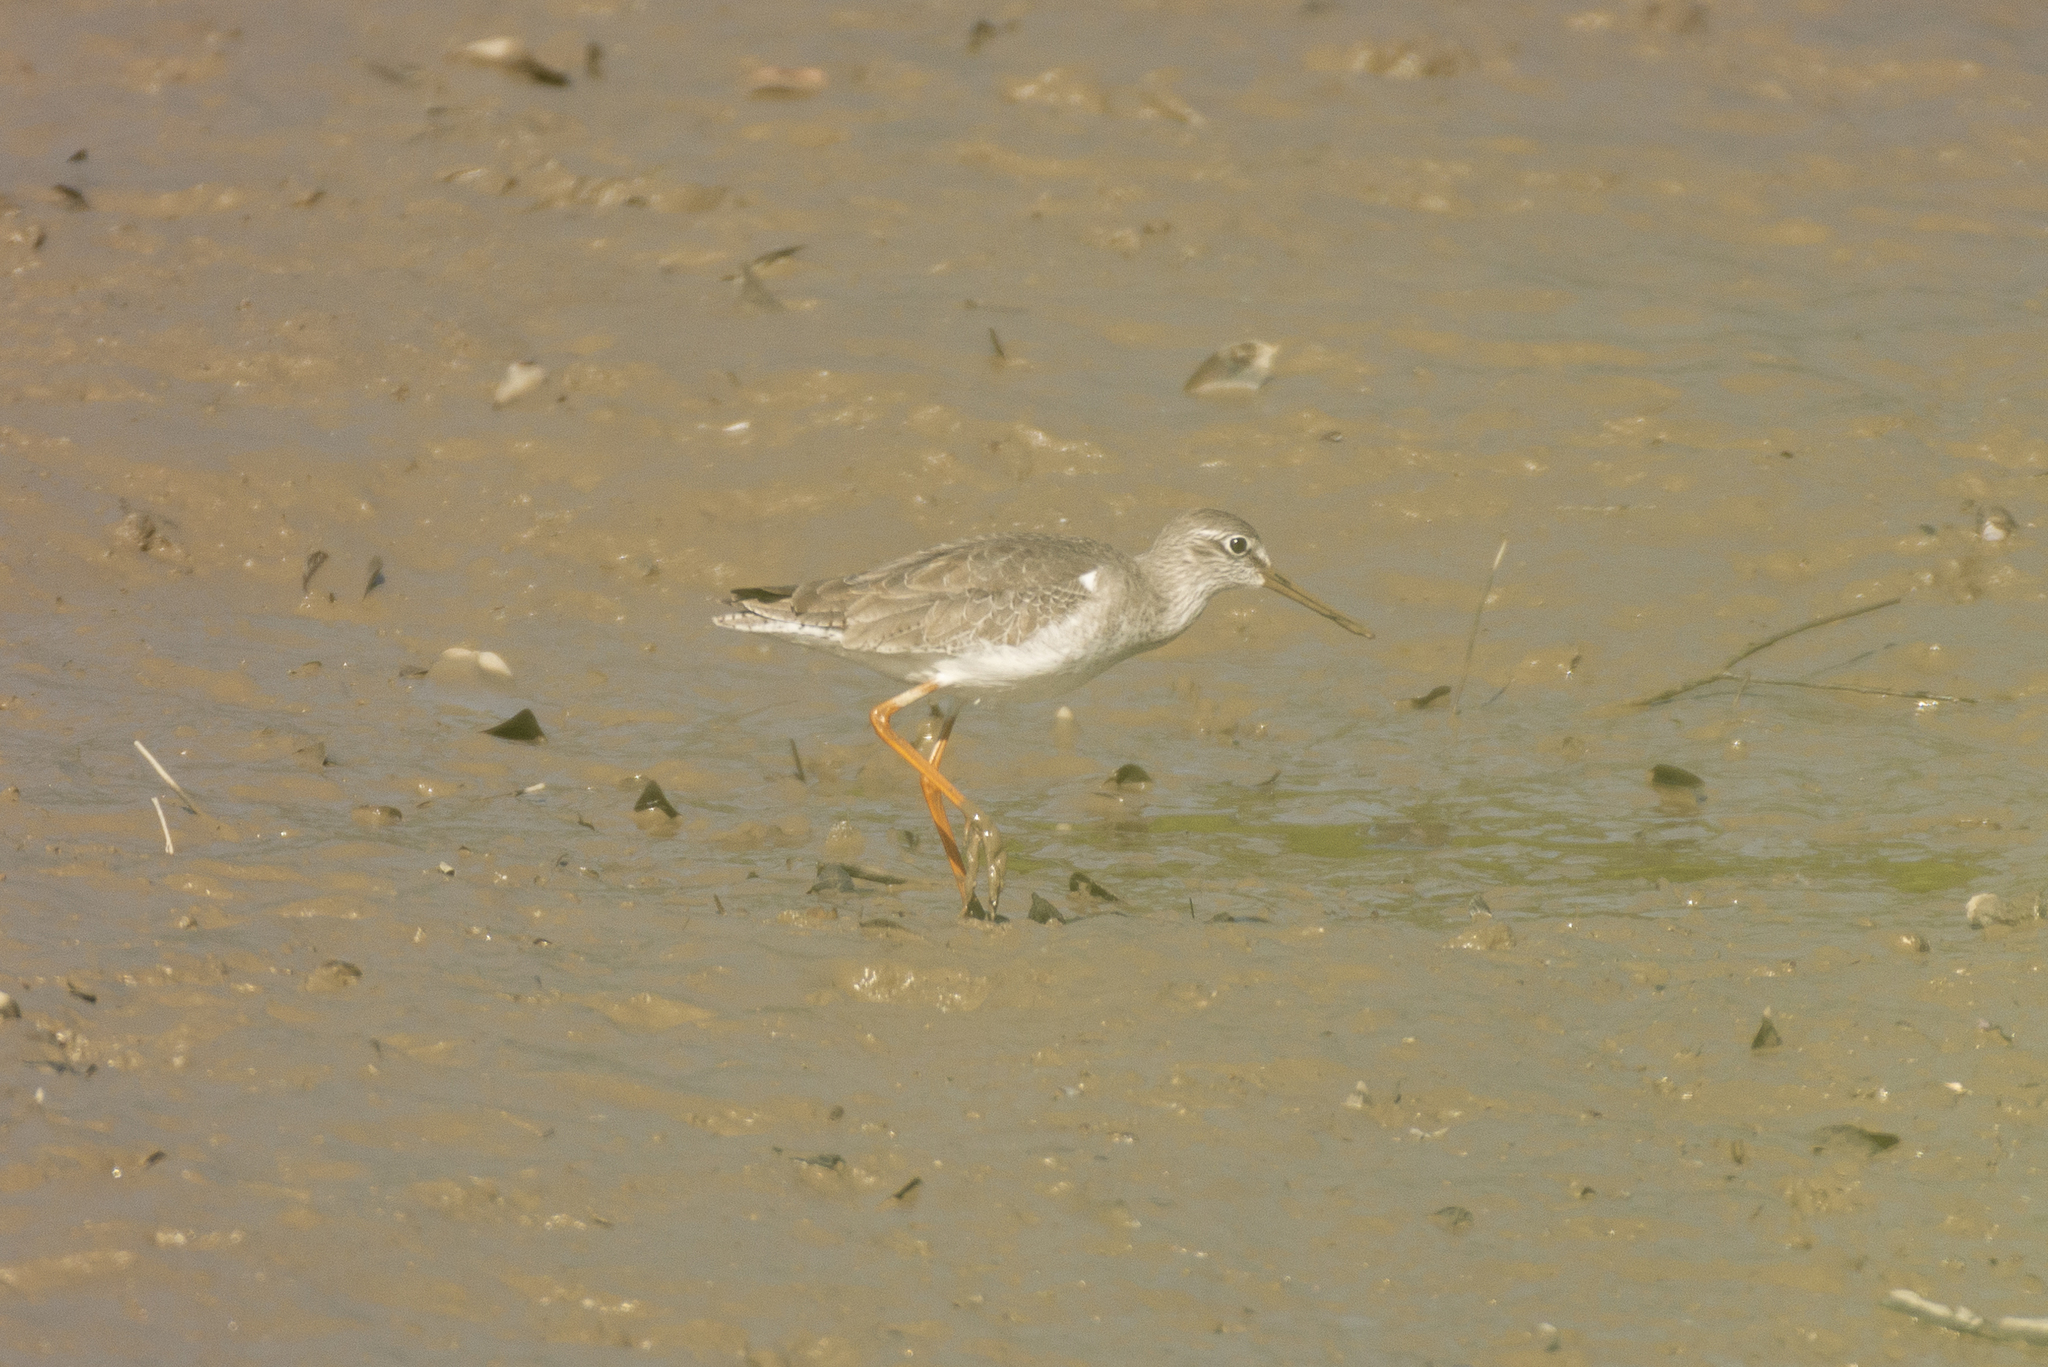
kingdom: Animalia
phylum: Chordata
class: Aves
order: Charadriiformes
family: Scolopacidae
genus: Tringa
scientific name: Tringa totanus
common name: Common redshank
